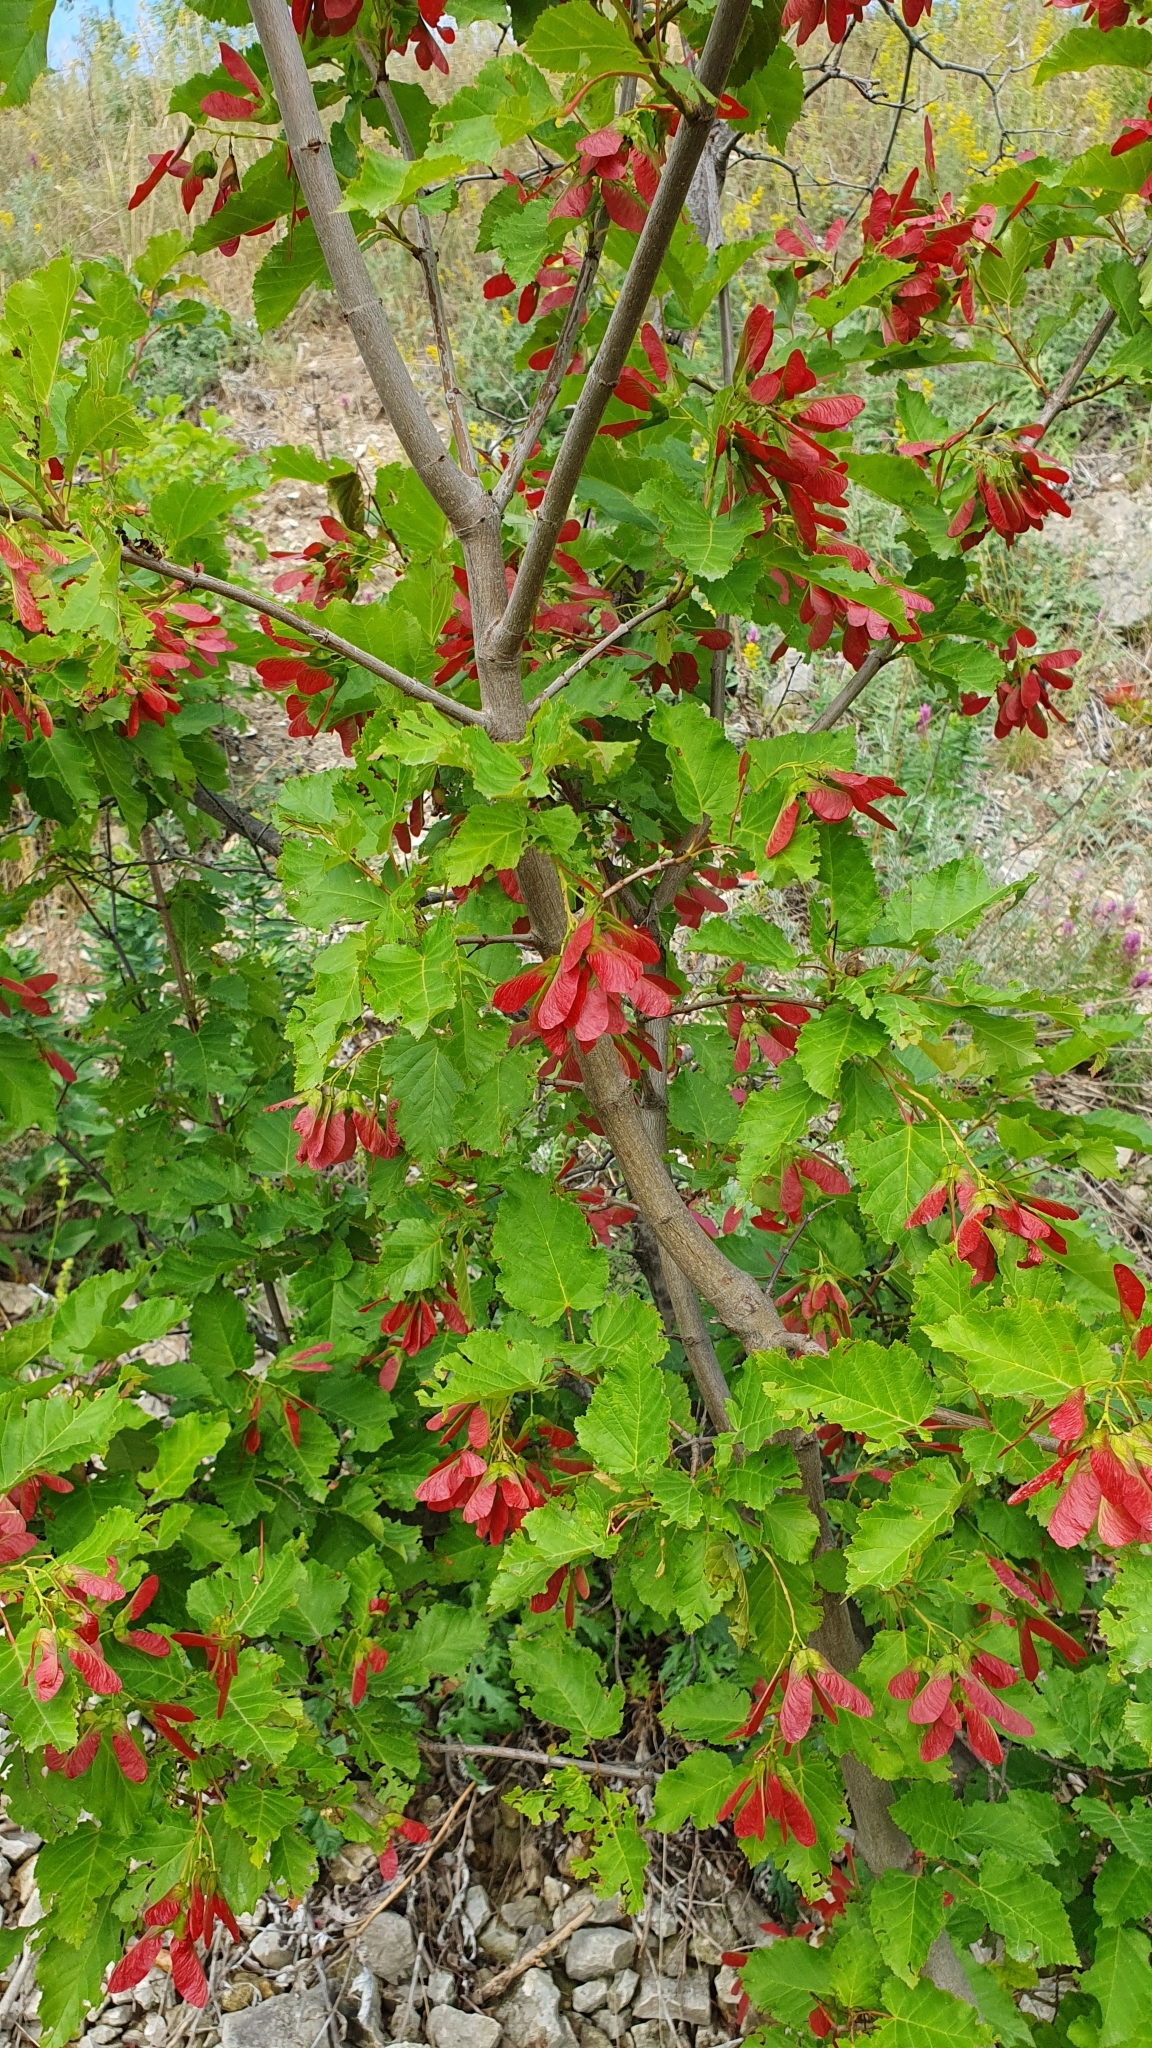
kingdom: Plantae
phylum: Tracheophyta
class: Magnoliopsida
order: Sapindales
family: Sapindaceae
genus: Acer
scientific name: Acer tataricum
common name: Tartar maple
